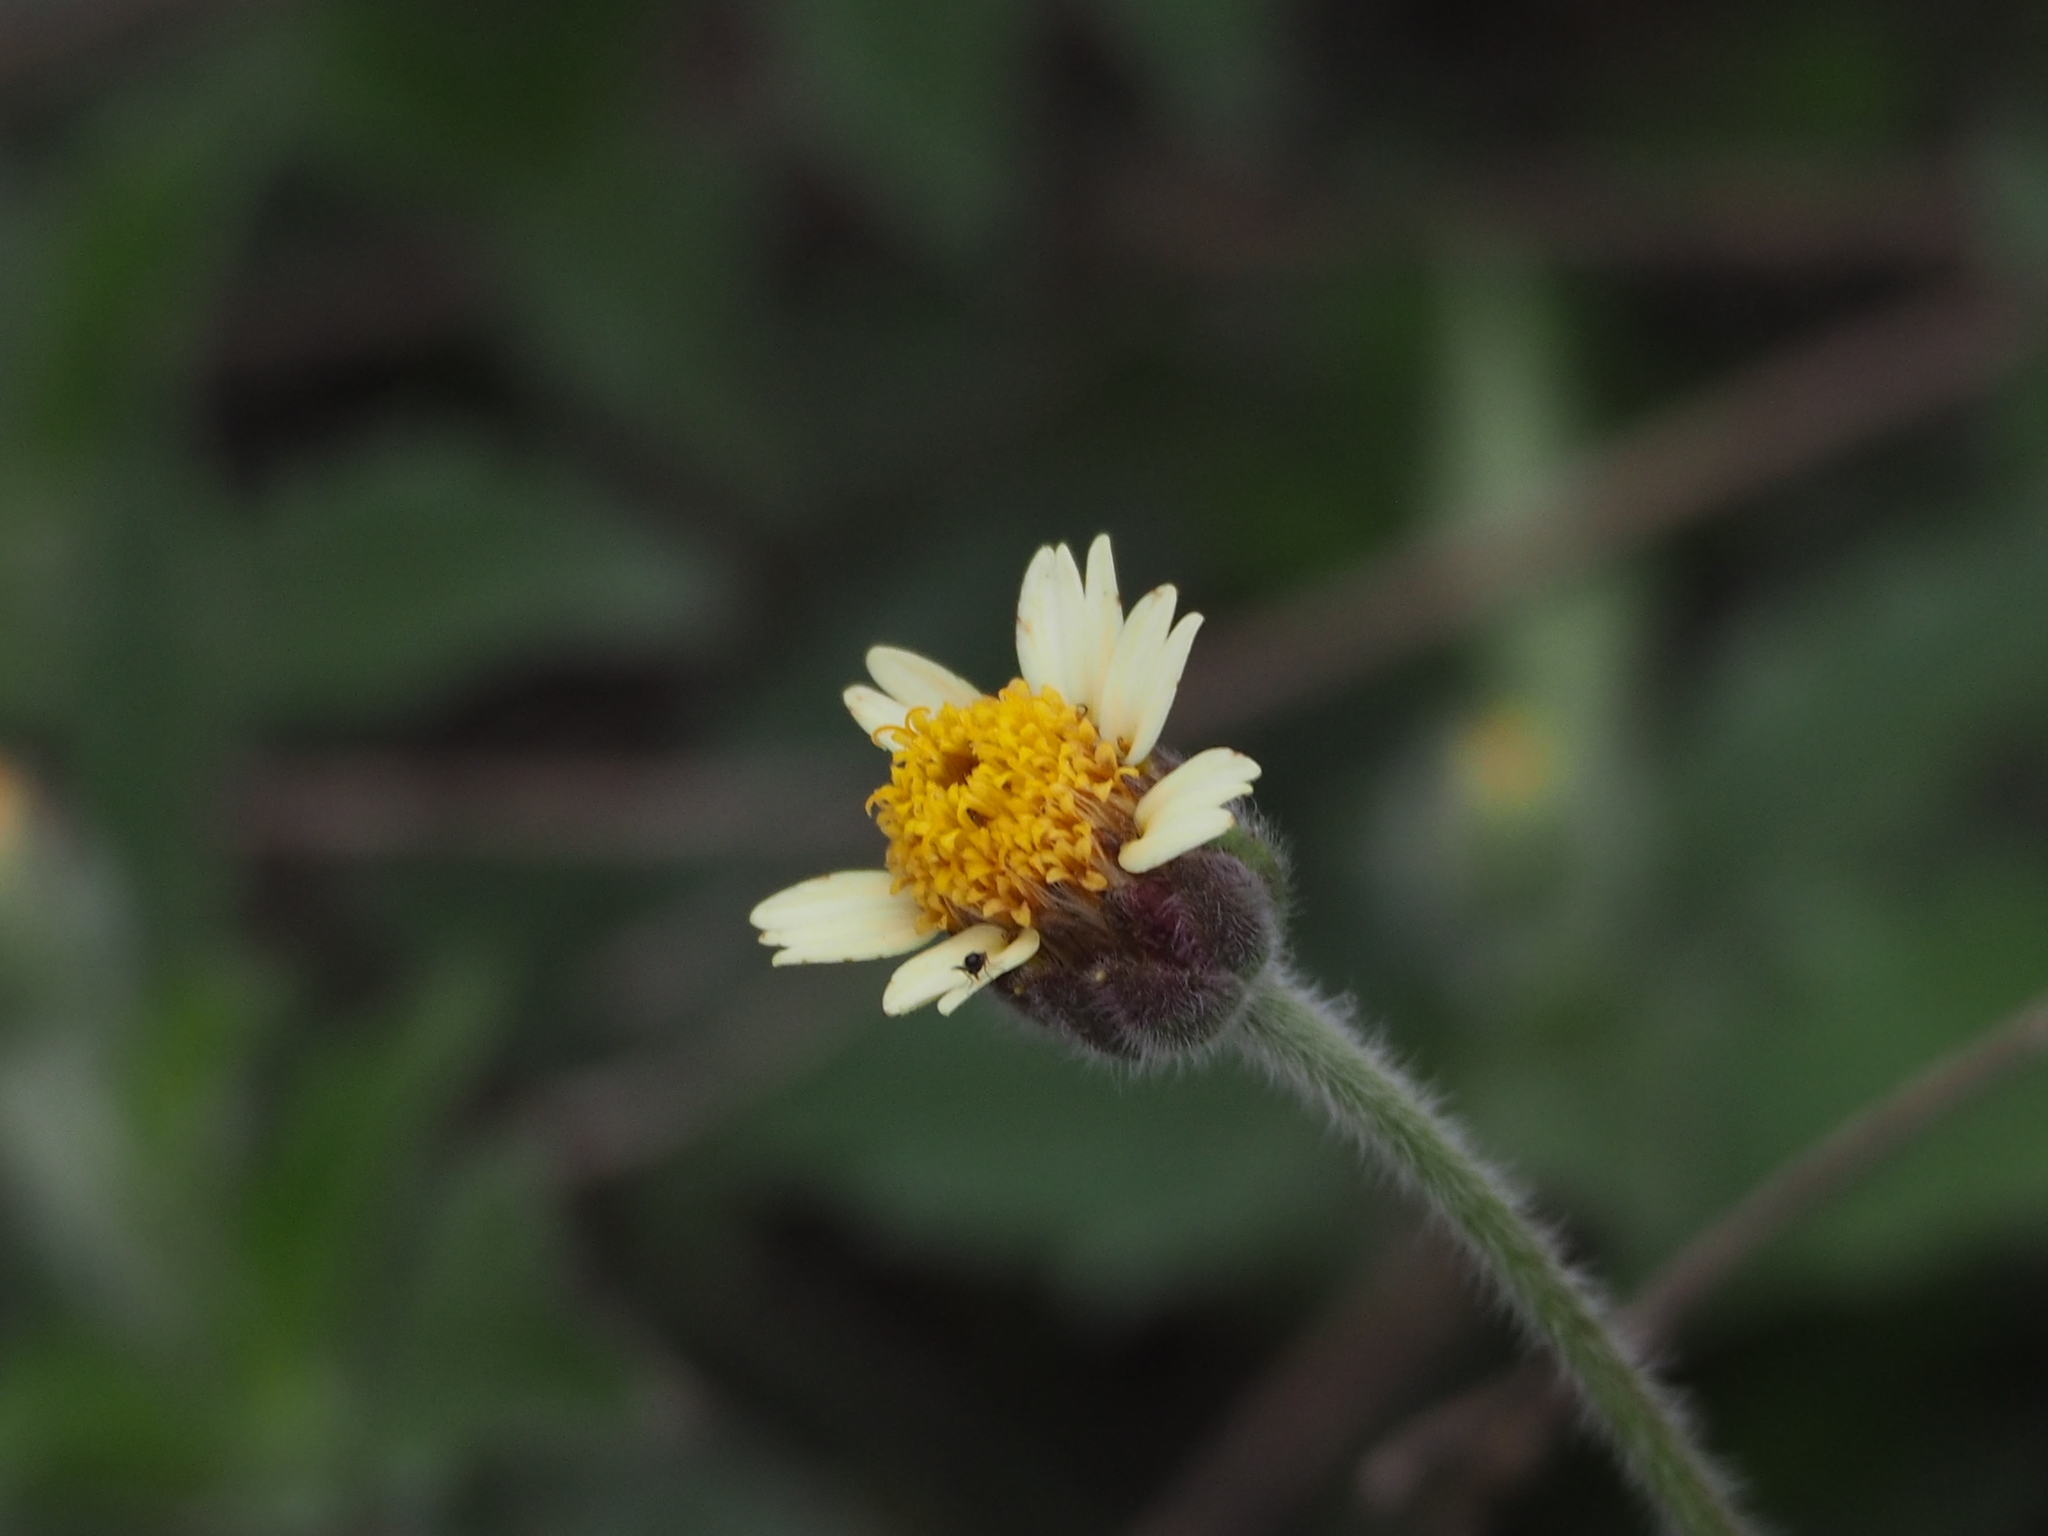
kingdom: Plantae
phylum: Tracheophyta
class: Magnoliopsida
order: Asterales
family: Asteraceae
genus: Tridax
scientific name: Tridax procumbens
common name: Coatbuttons
